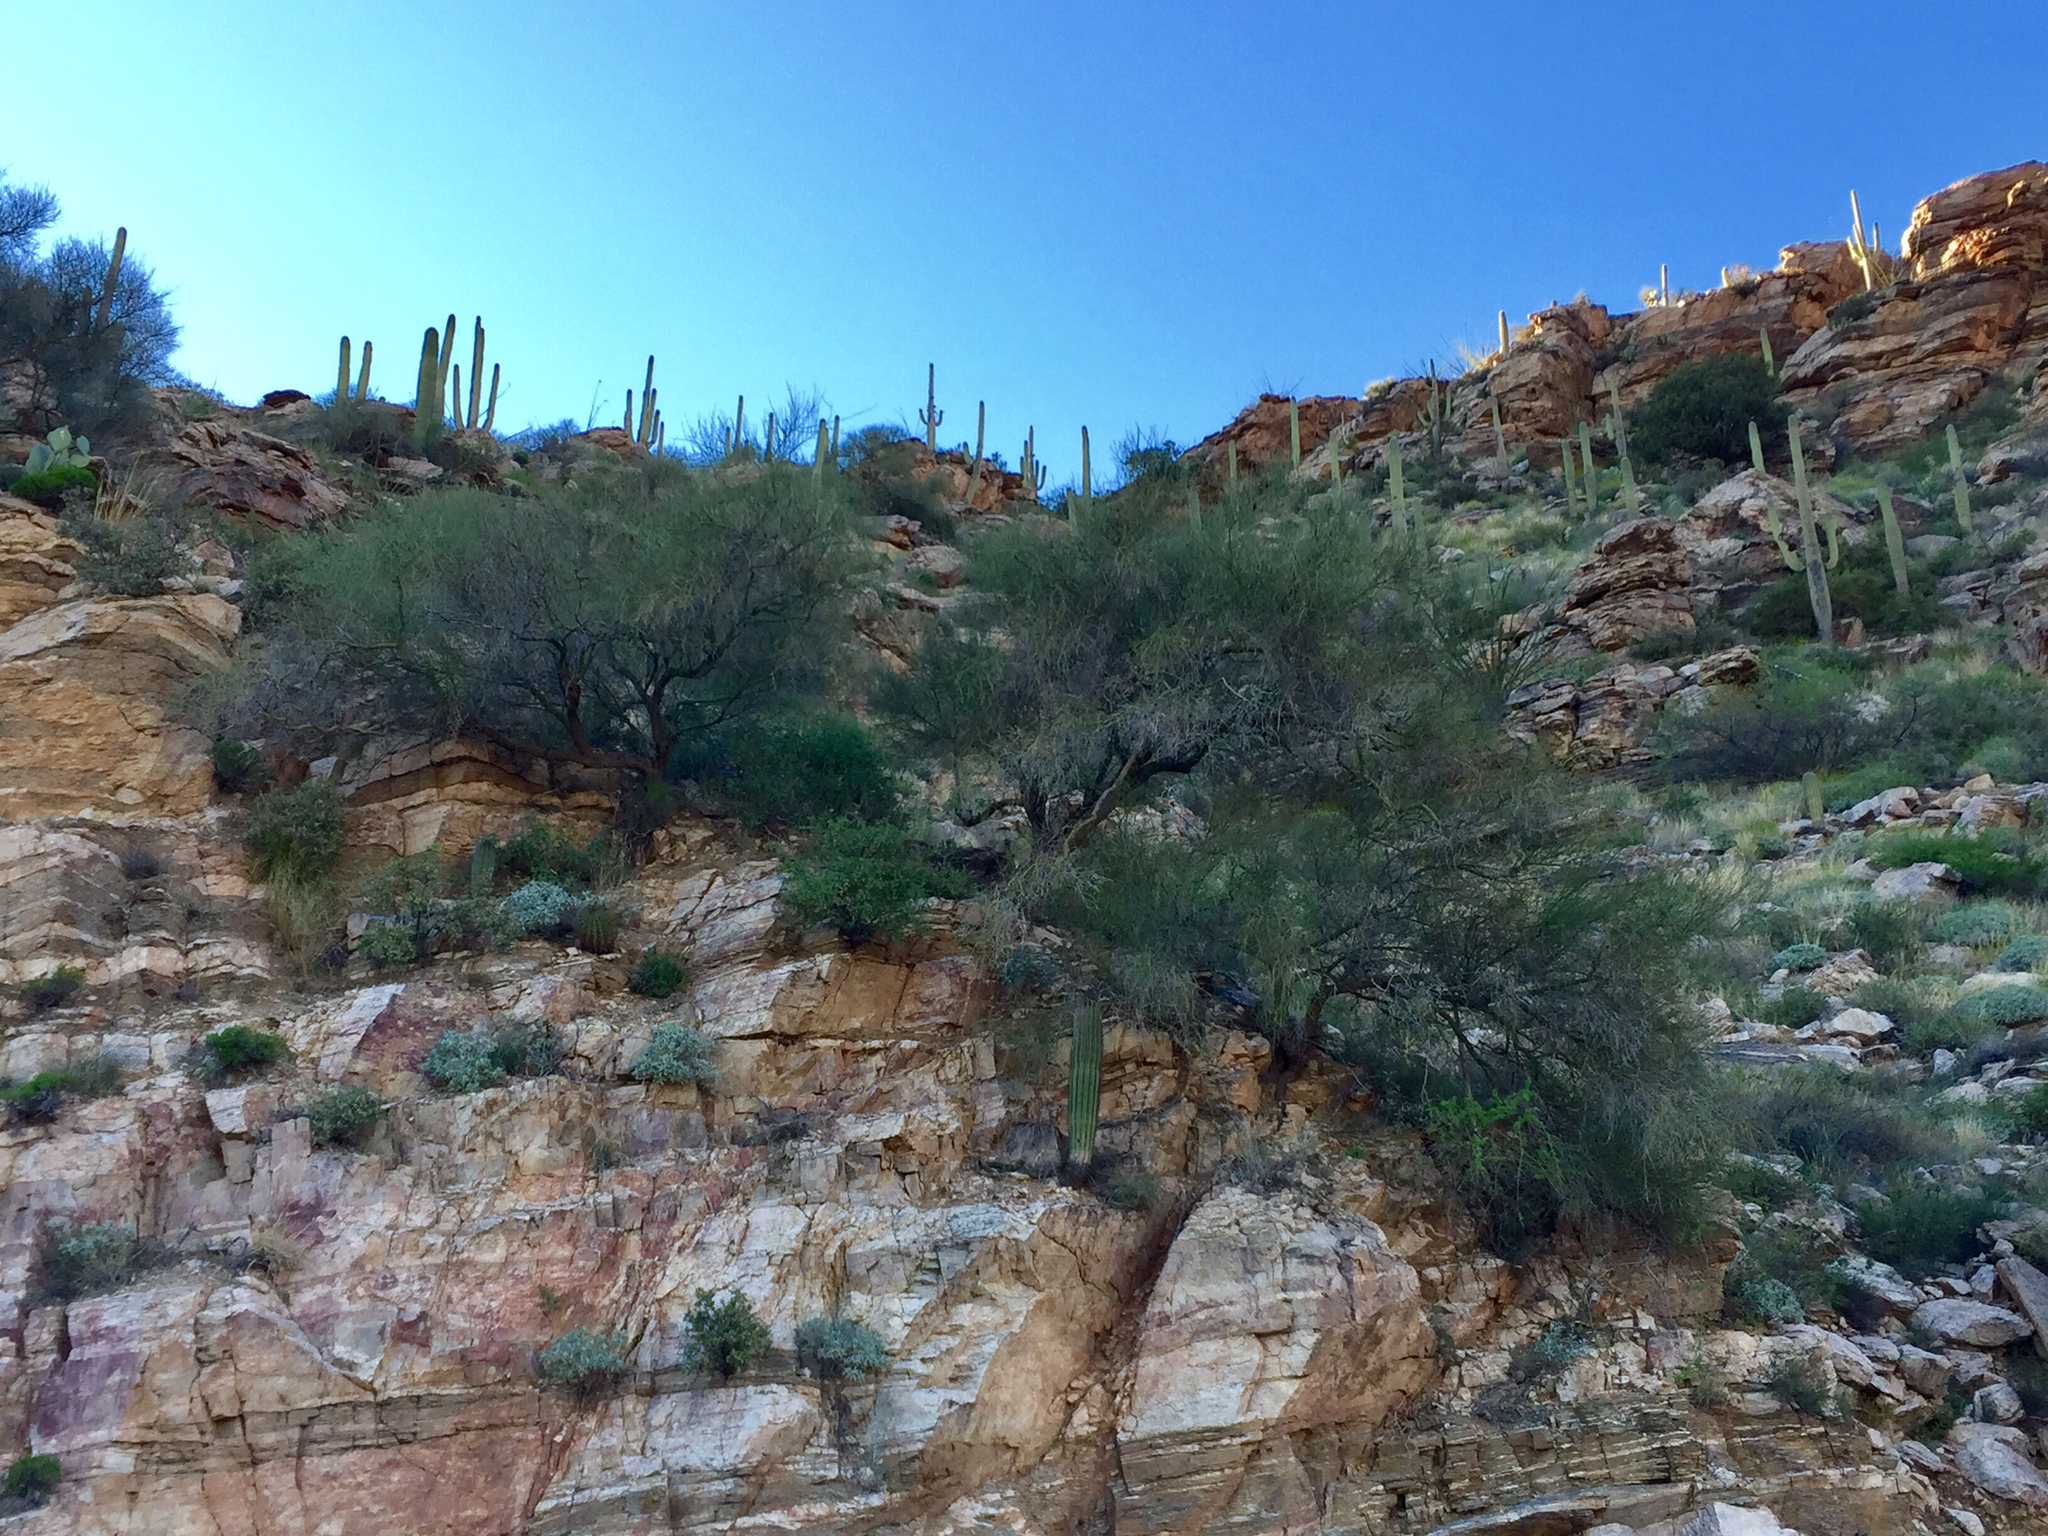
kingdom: Plantae
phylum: Tracheophyta
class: Magnoliopsida
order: Fabales
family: Fabaceae
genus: Parkinsonia
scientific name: Parkinsonia microphylla
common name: Yellow paloverde
